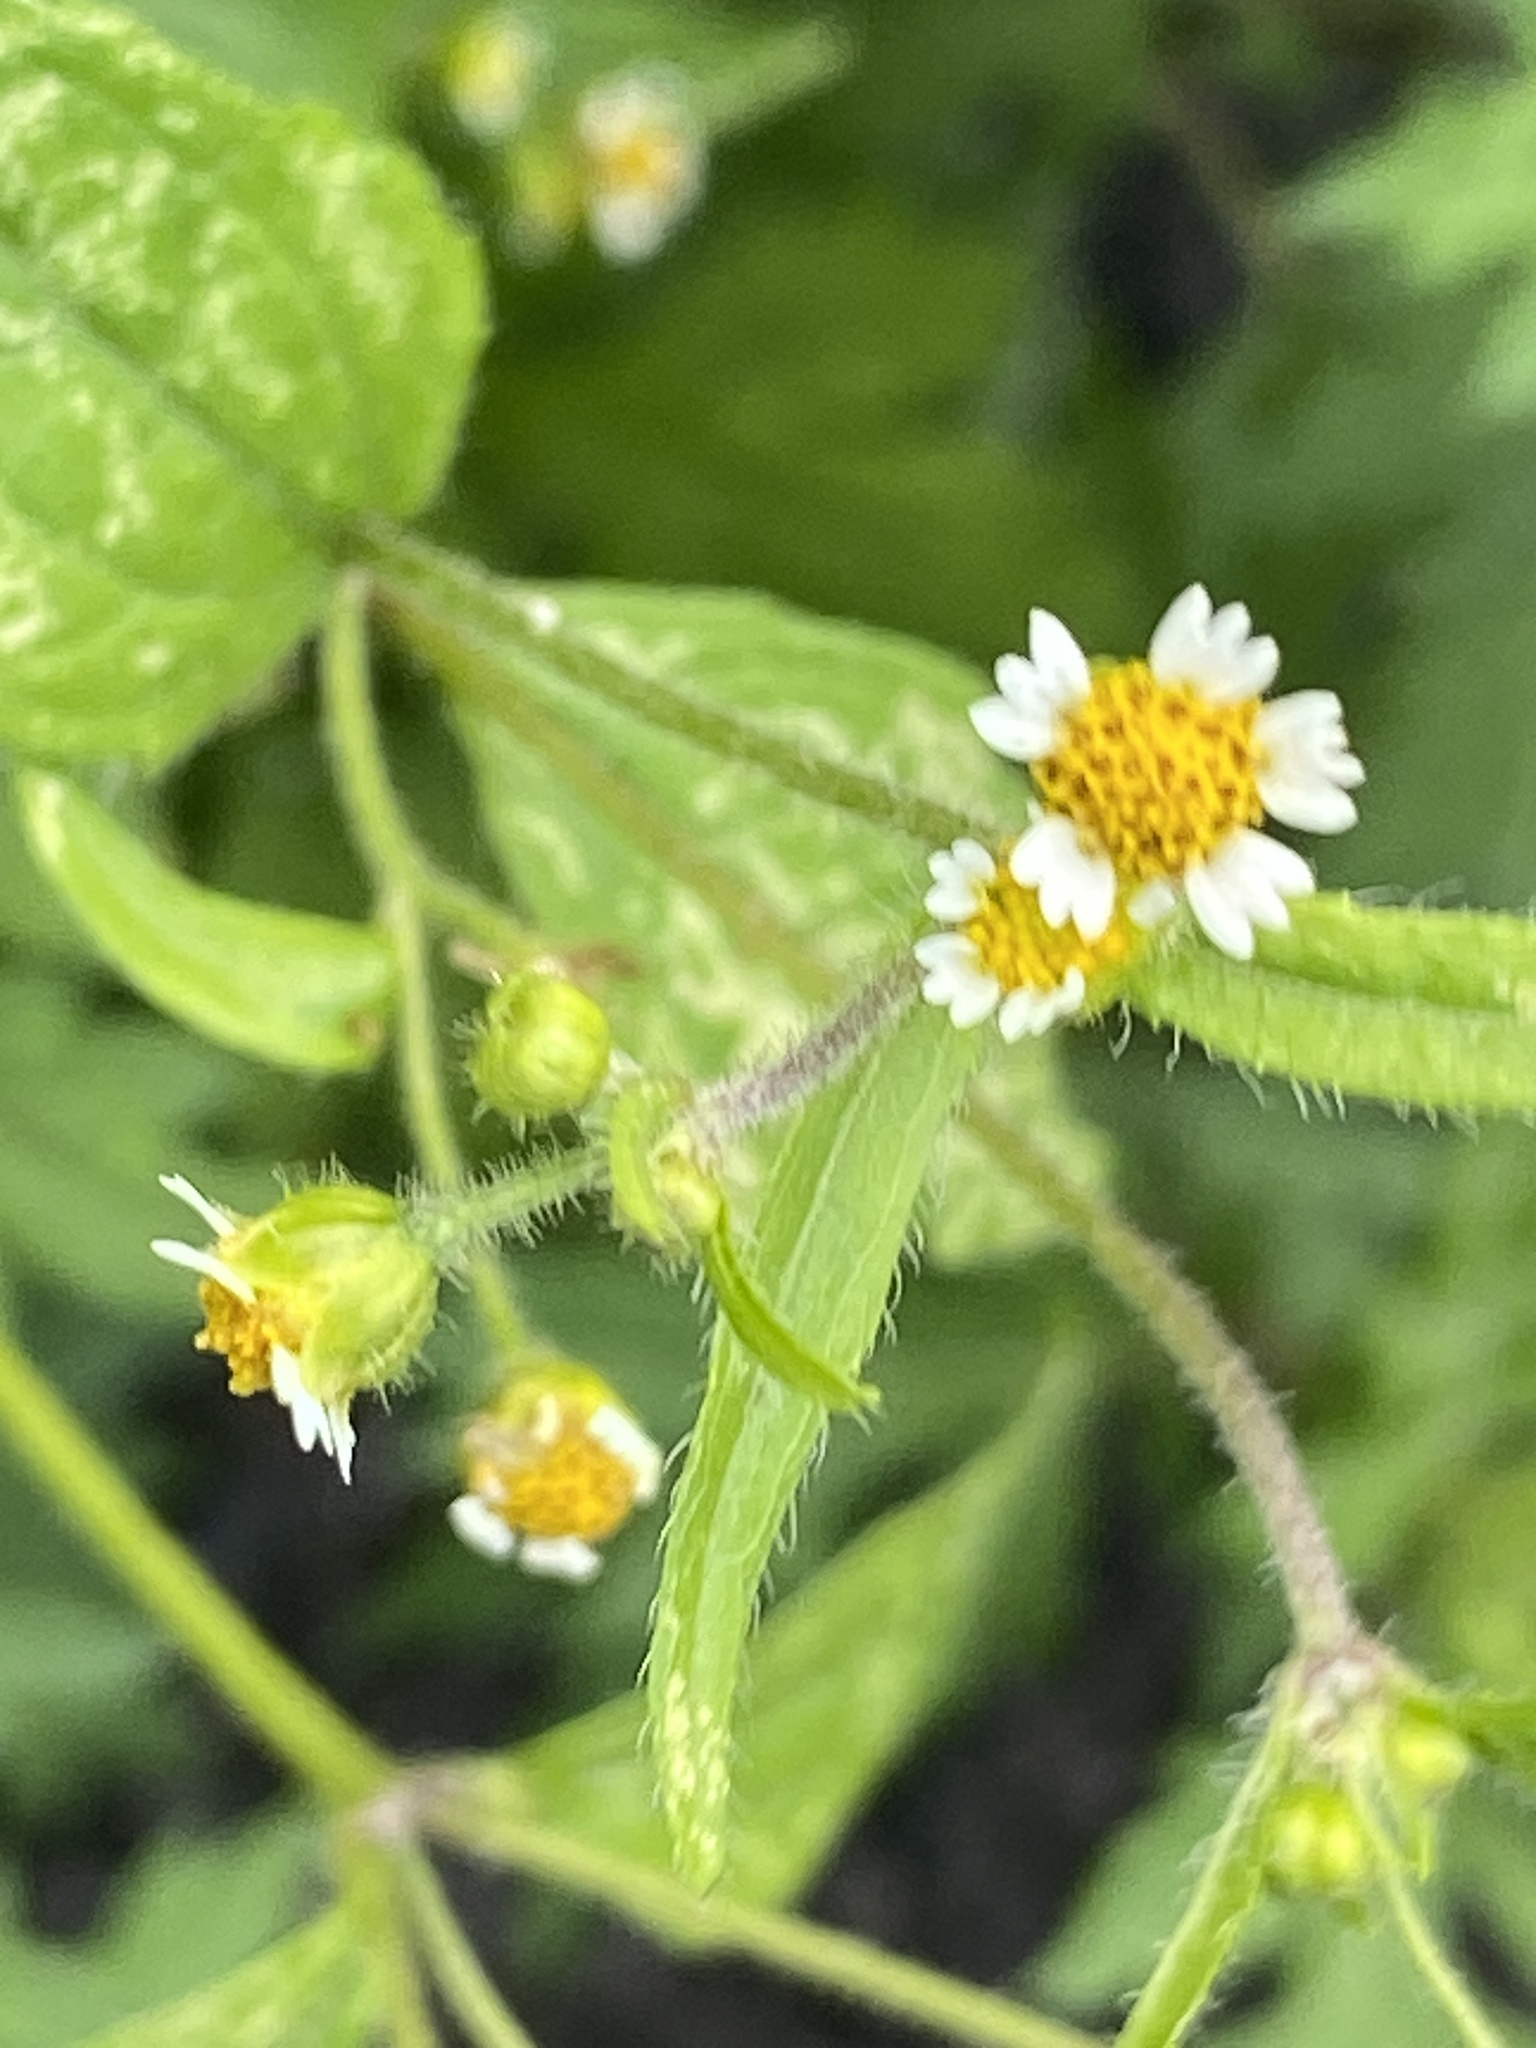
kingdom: Plantae
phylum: Tracheophyta
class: Magnoliopsida
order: Asterales
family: Asteraceae
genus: Galinsoga
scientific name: Galinsoga quadriradiata
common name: Shaggy soldier
